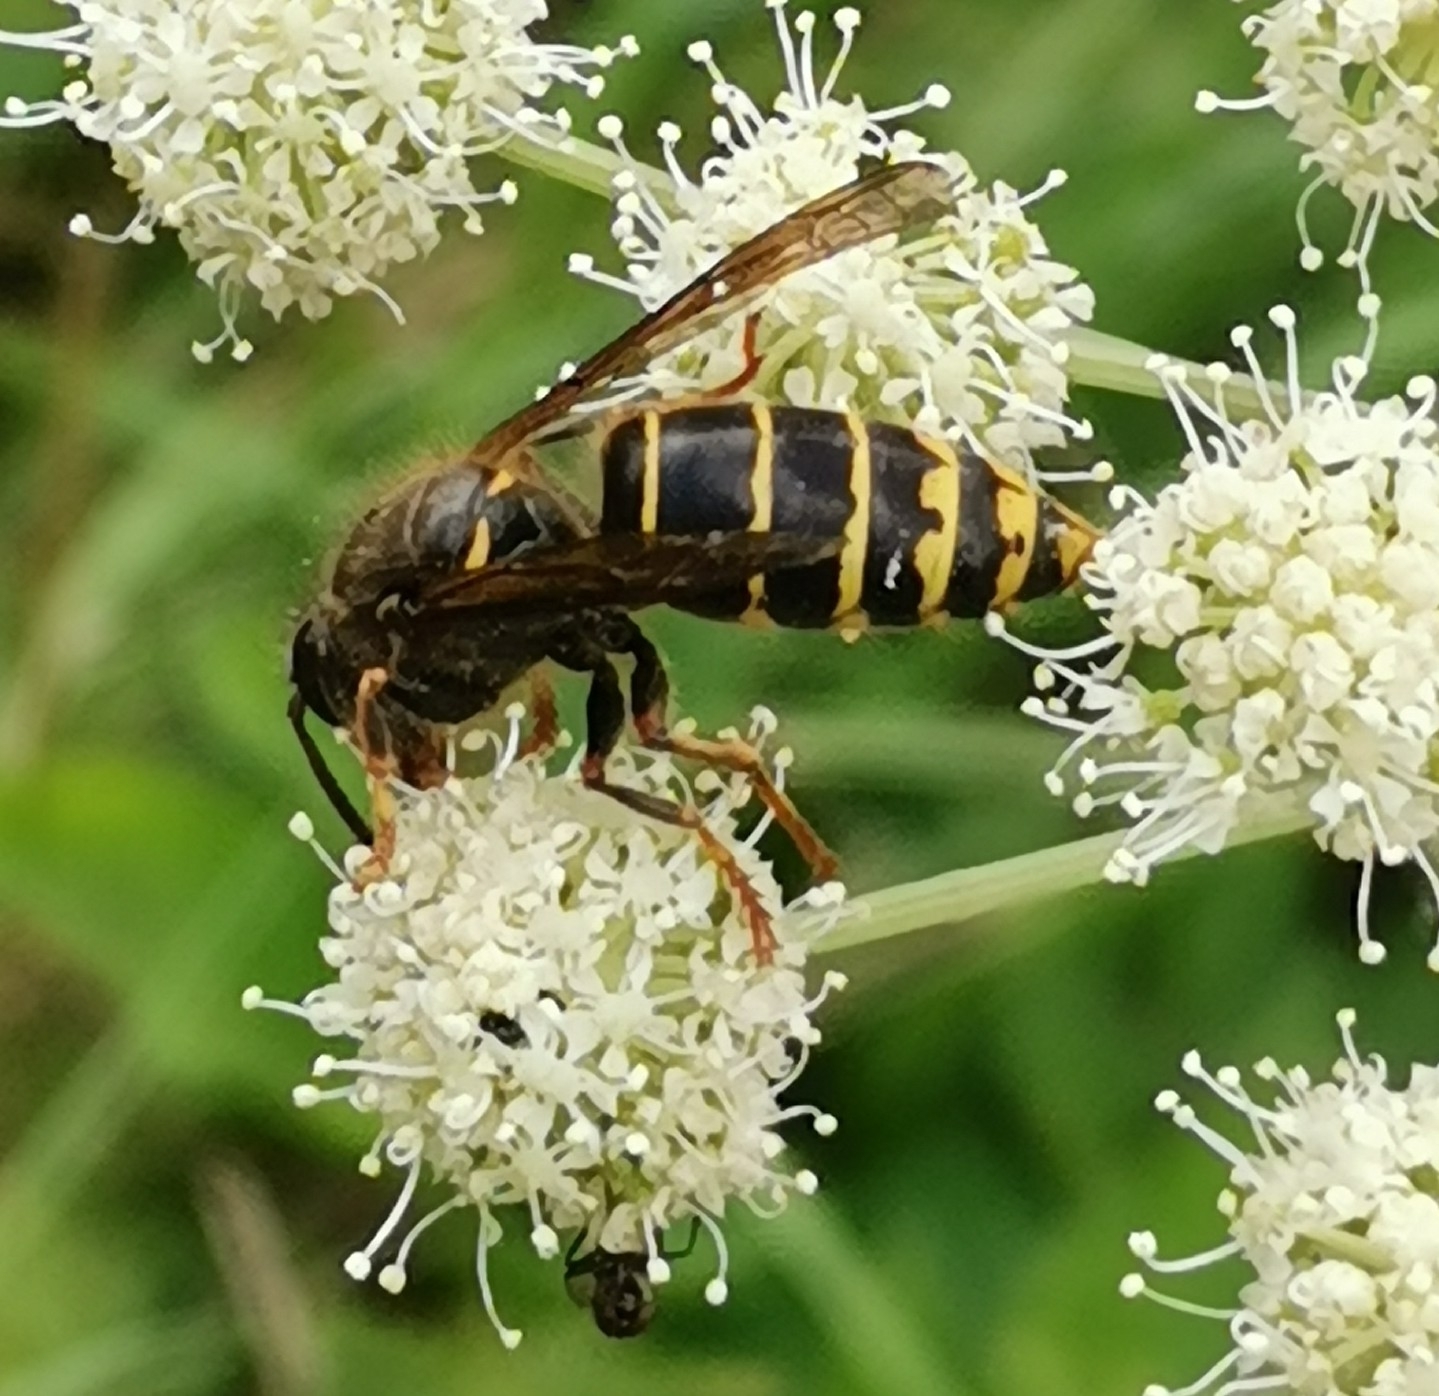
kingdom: Animalia
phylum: Arthropoda
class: Insecta
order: Hymenoptera
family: Vespidae
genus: Dolichovespula
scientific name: Dolichovespula media
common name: Median wasp
